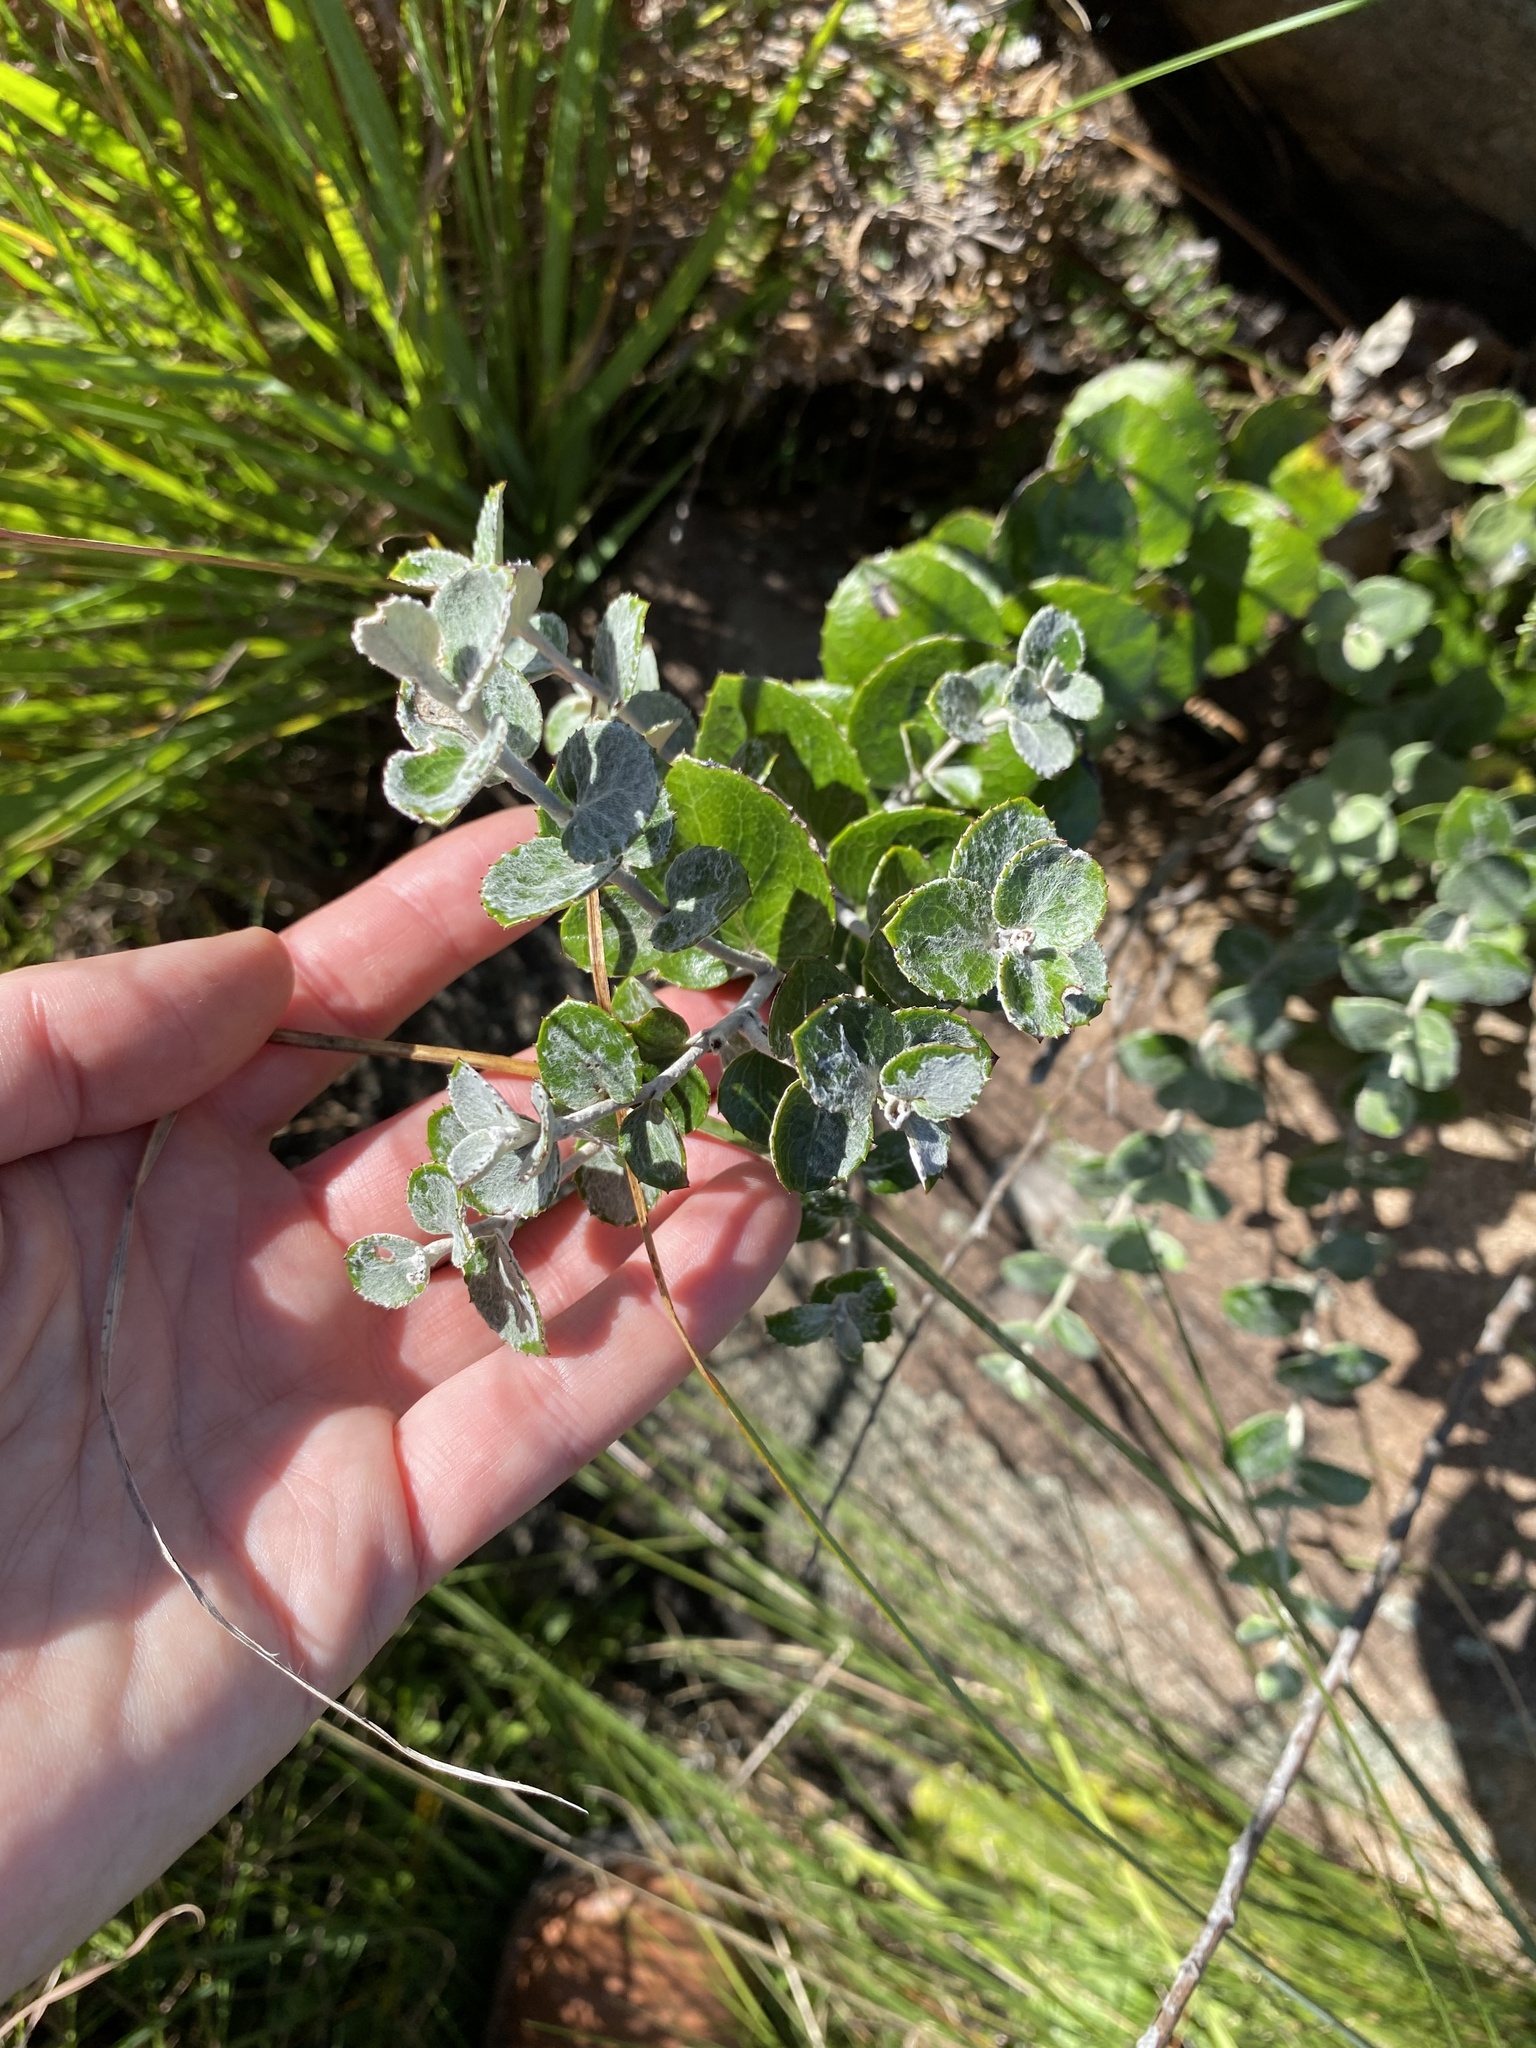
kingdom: Plantae
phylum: Tracheophyta
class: Magnoliopsida
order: Asterales
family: Asteraceae
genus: Printzia
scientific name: Printzia pyrifolia
